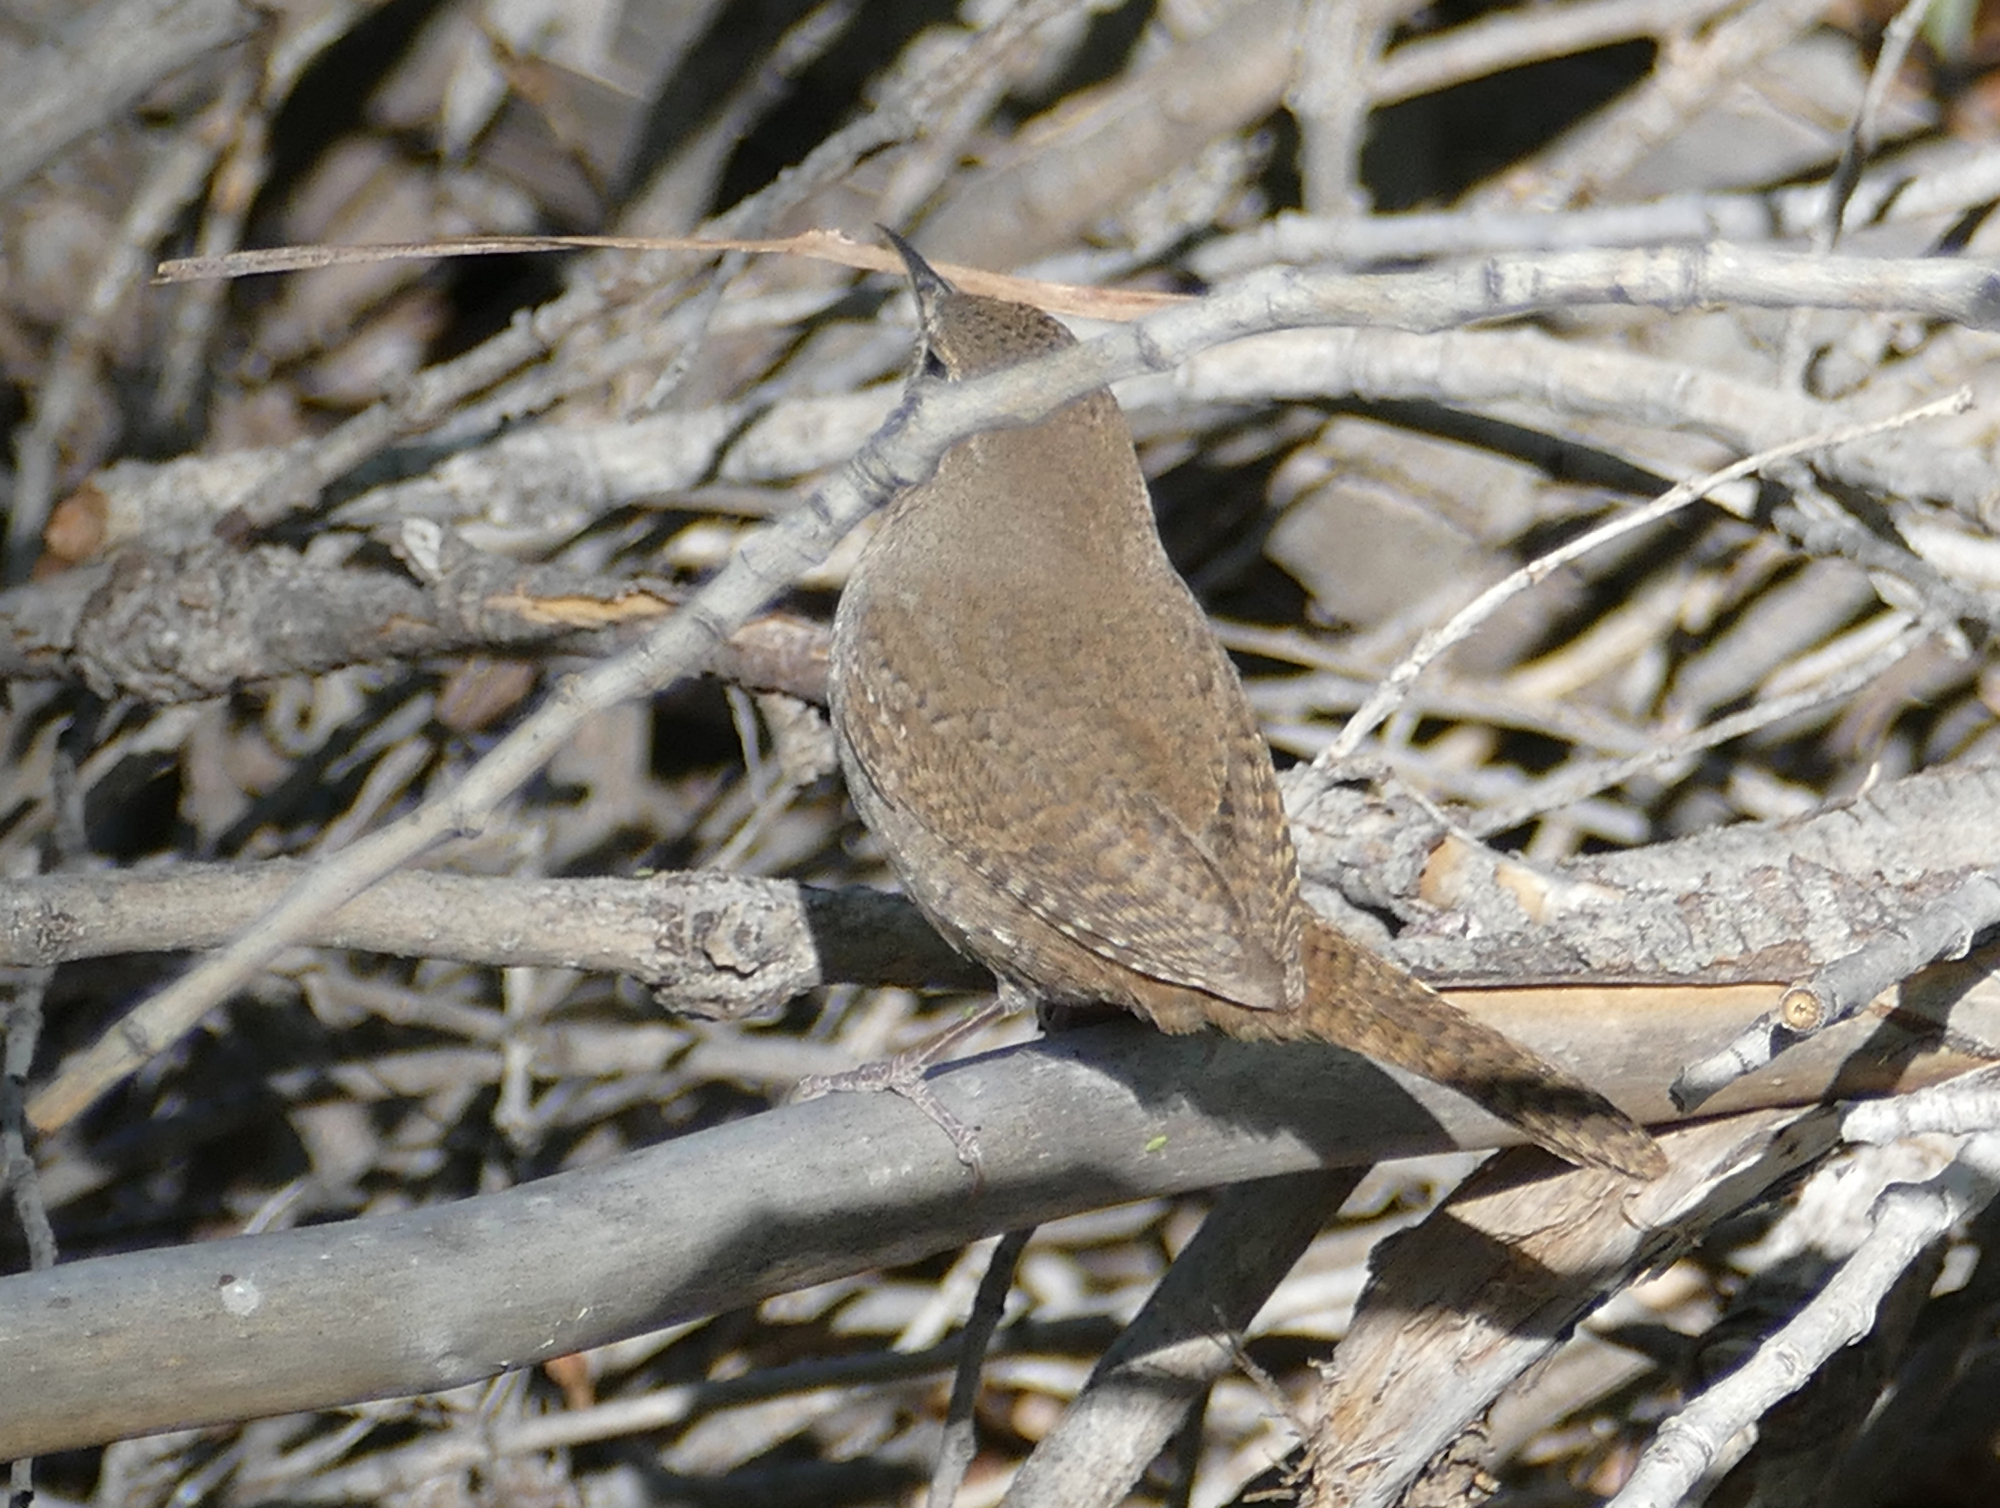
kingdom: Animalia
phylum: Chordata
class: Aves
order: Passeriformes
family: Troglodytidae
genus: Troglodytes
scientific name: Troglodytes aedon
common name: House wren
